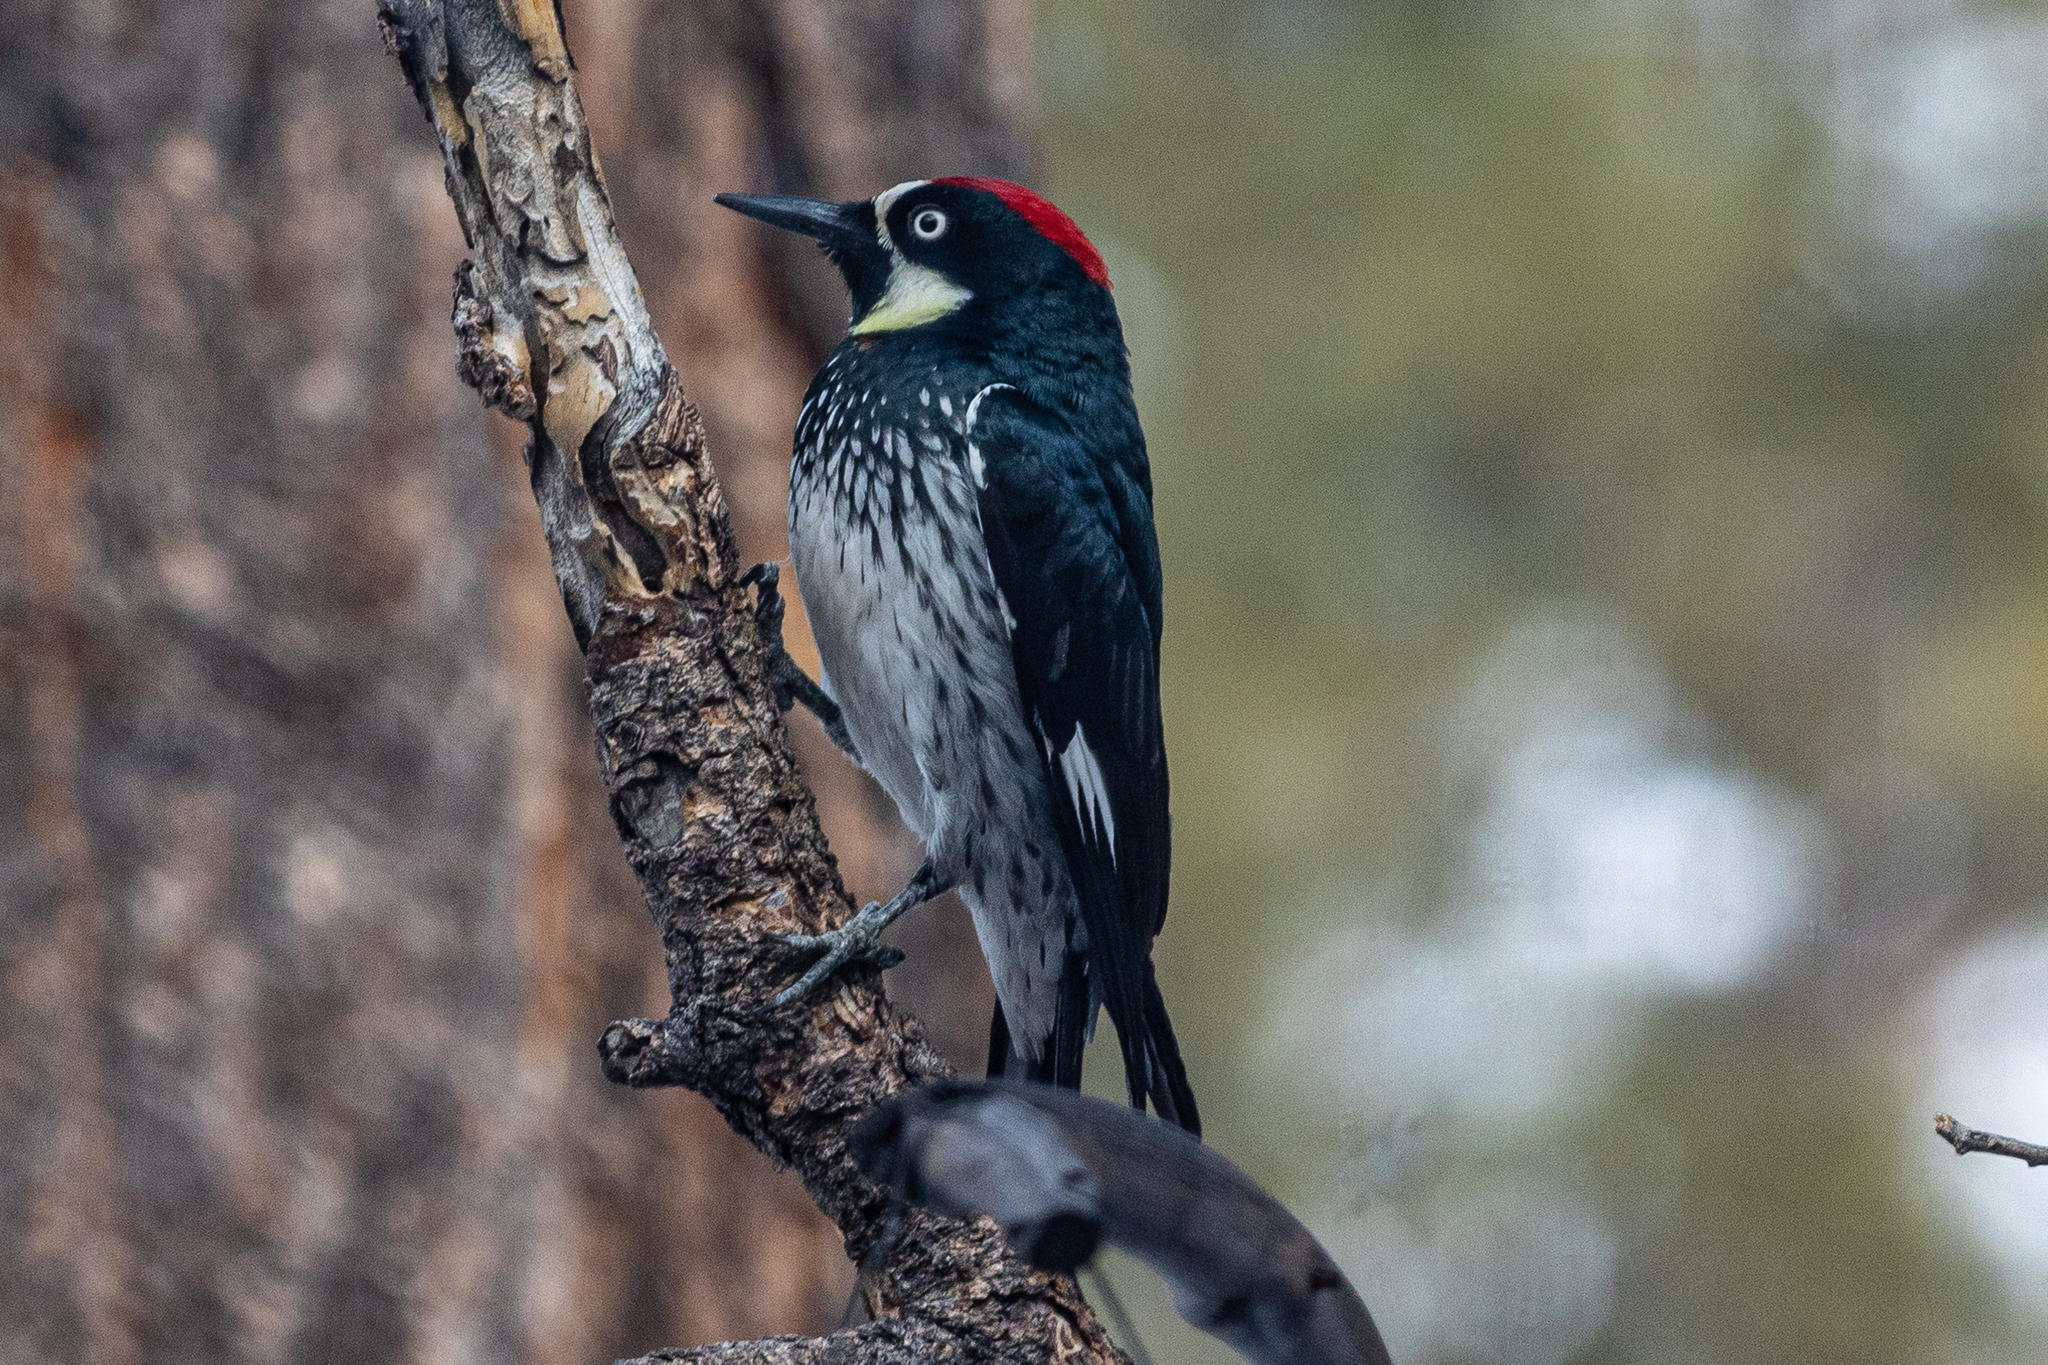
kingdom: Animalia
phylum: Chordata
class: Aves
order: Piciformes
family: Picidae
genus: Melanerpes
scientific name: Melanerpes formicivorus
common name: Acorn woodpecker
